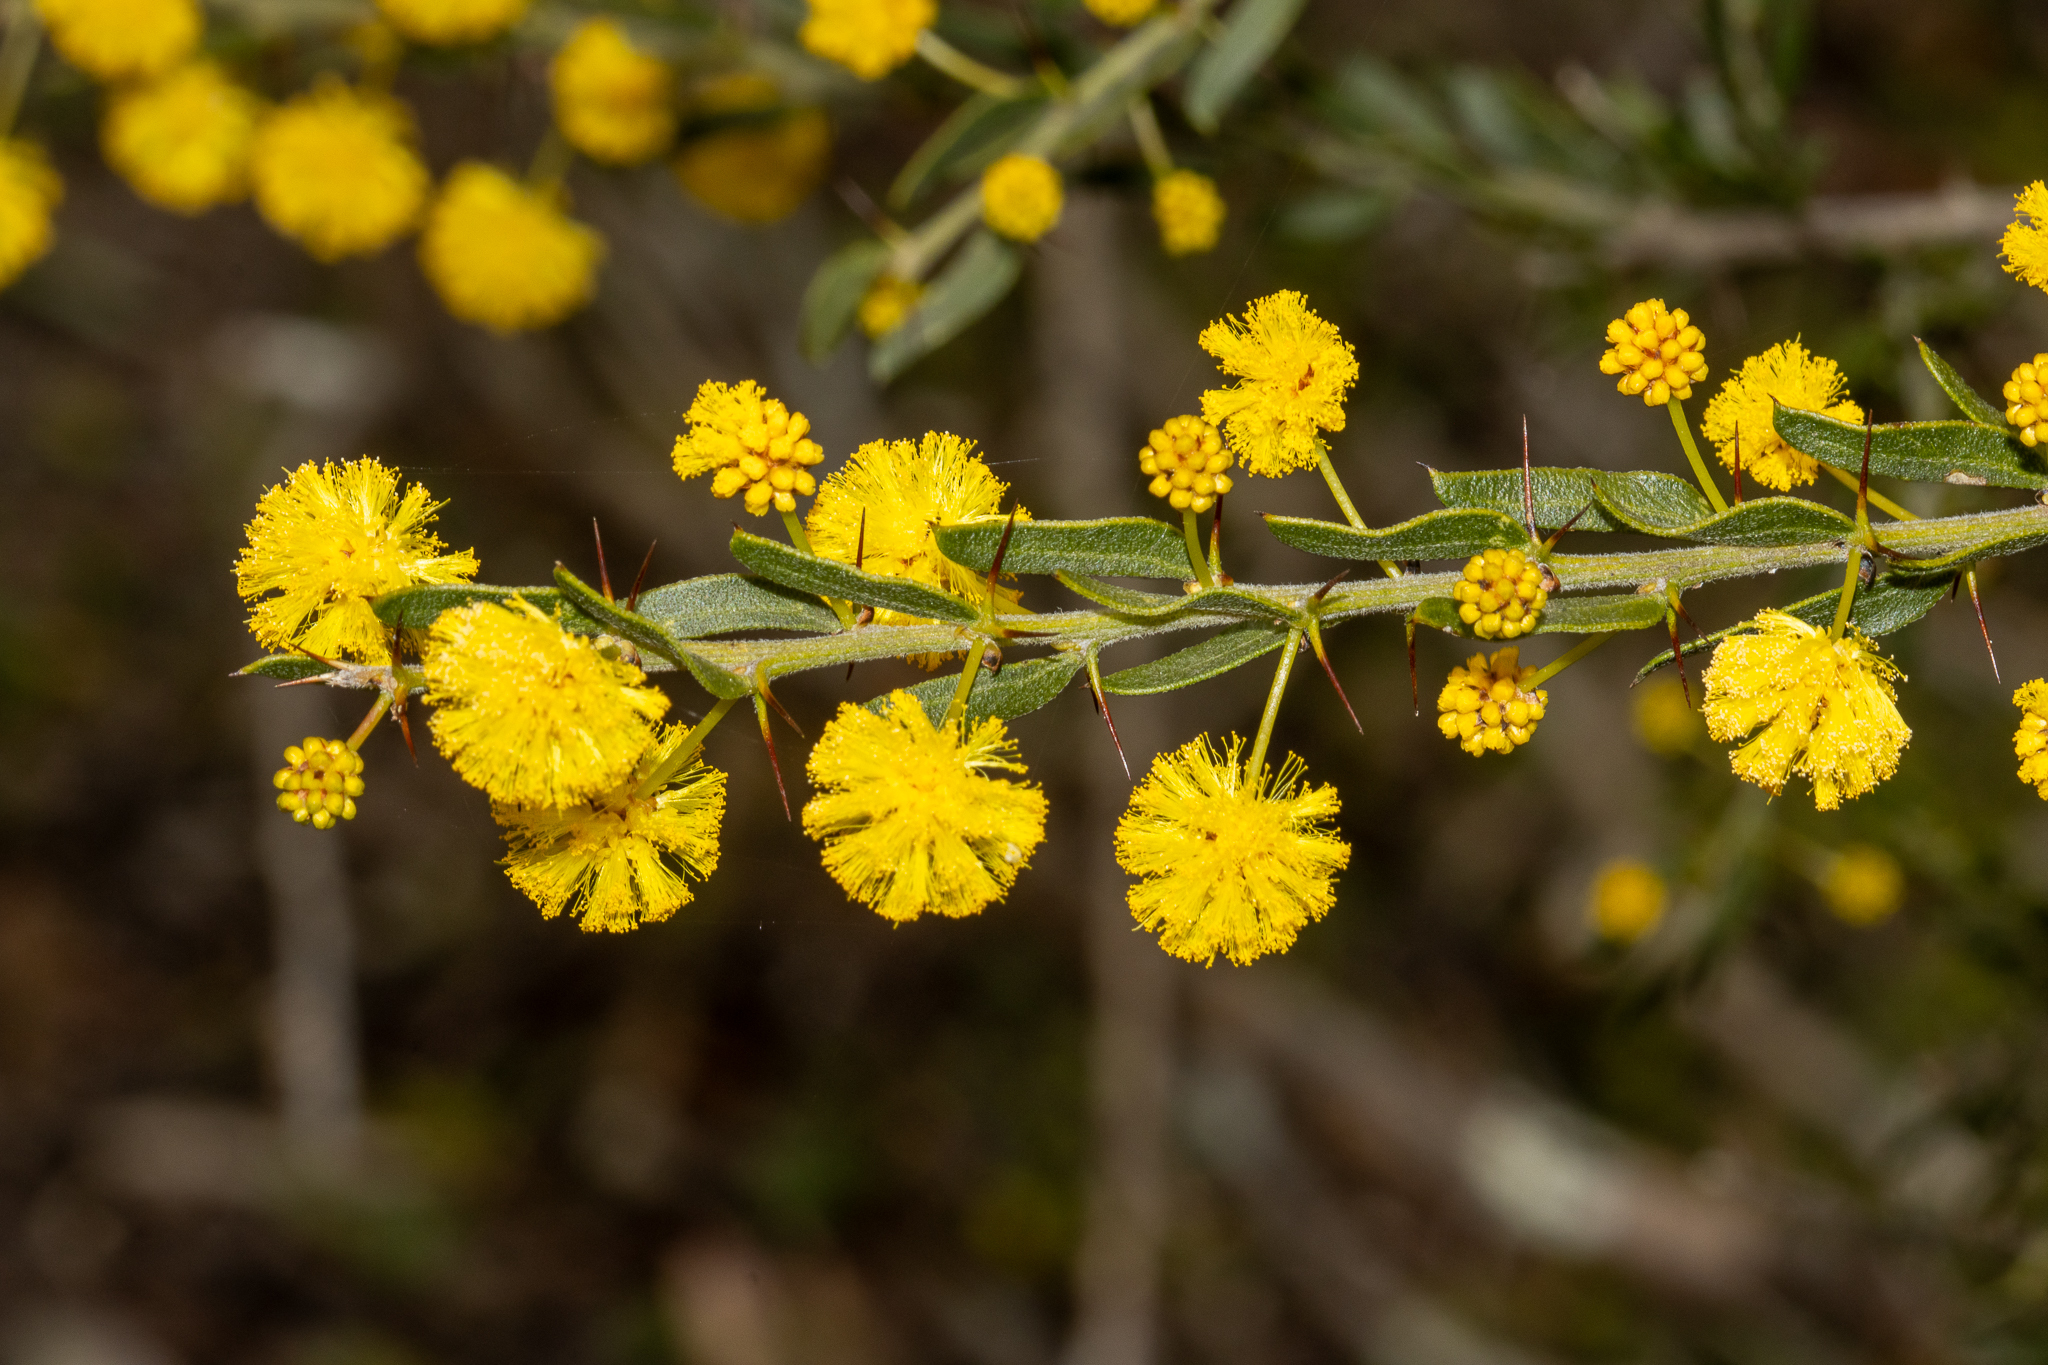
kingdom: Plantae
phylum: Tracheophyta
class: Magnoliopsida
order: Fabales
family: Fabaceae
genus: Acacia
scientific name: Acacia paradoxa
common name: Paradox acacia
